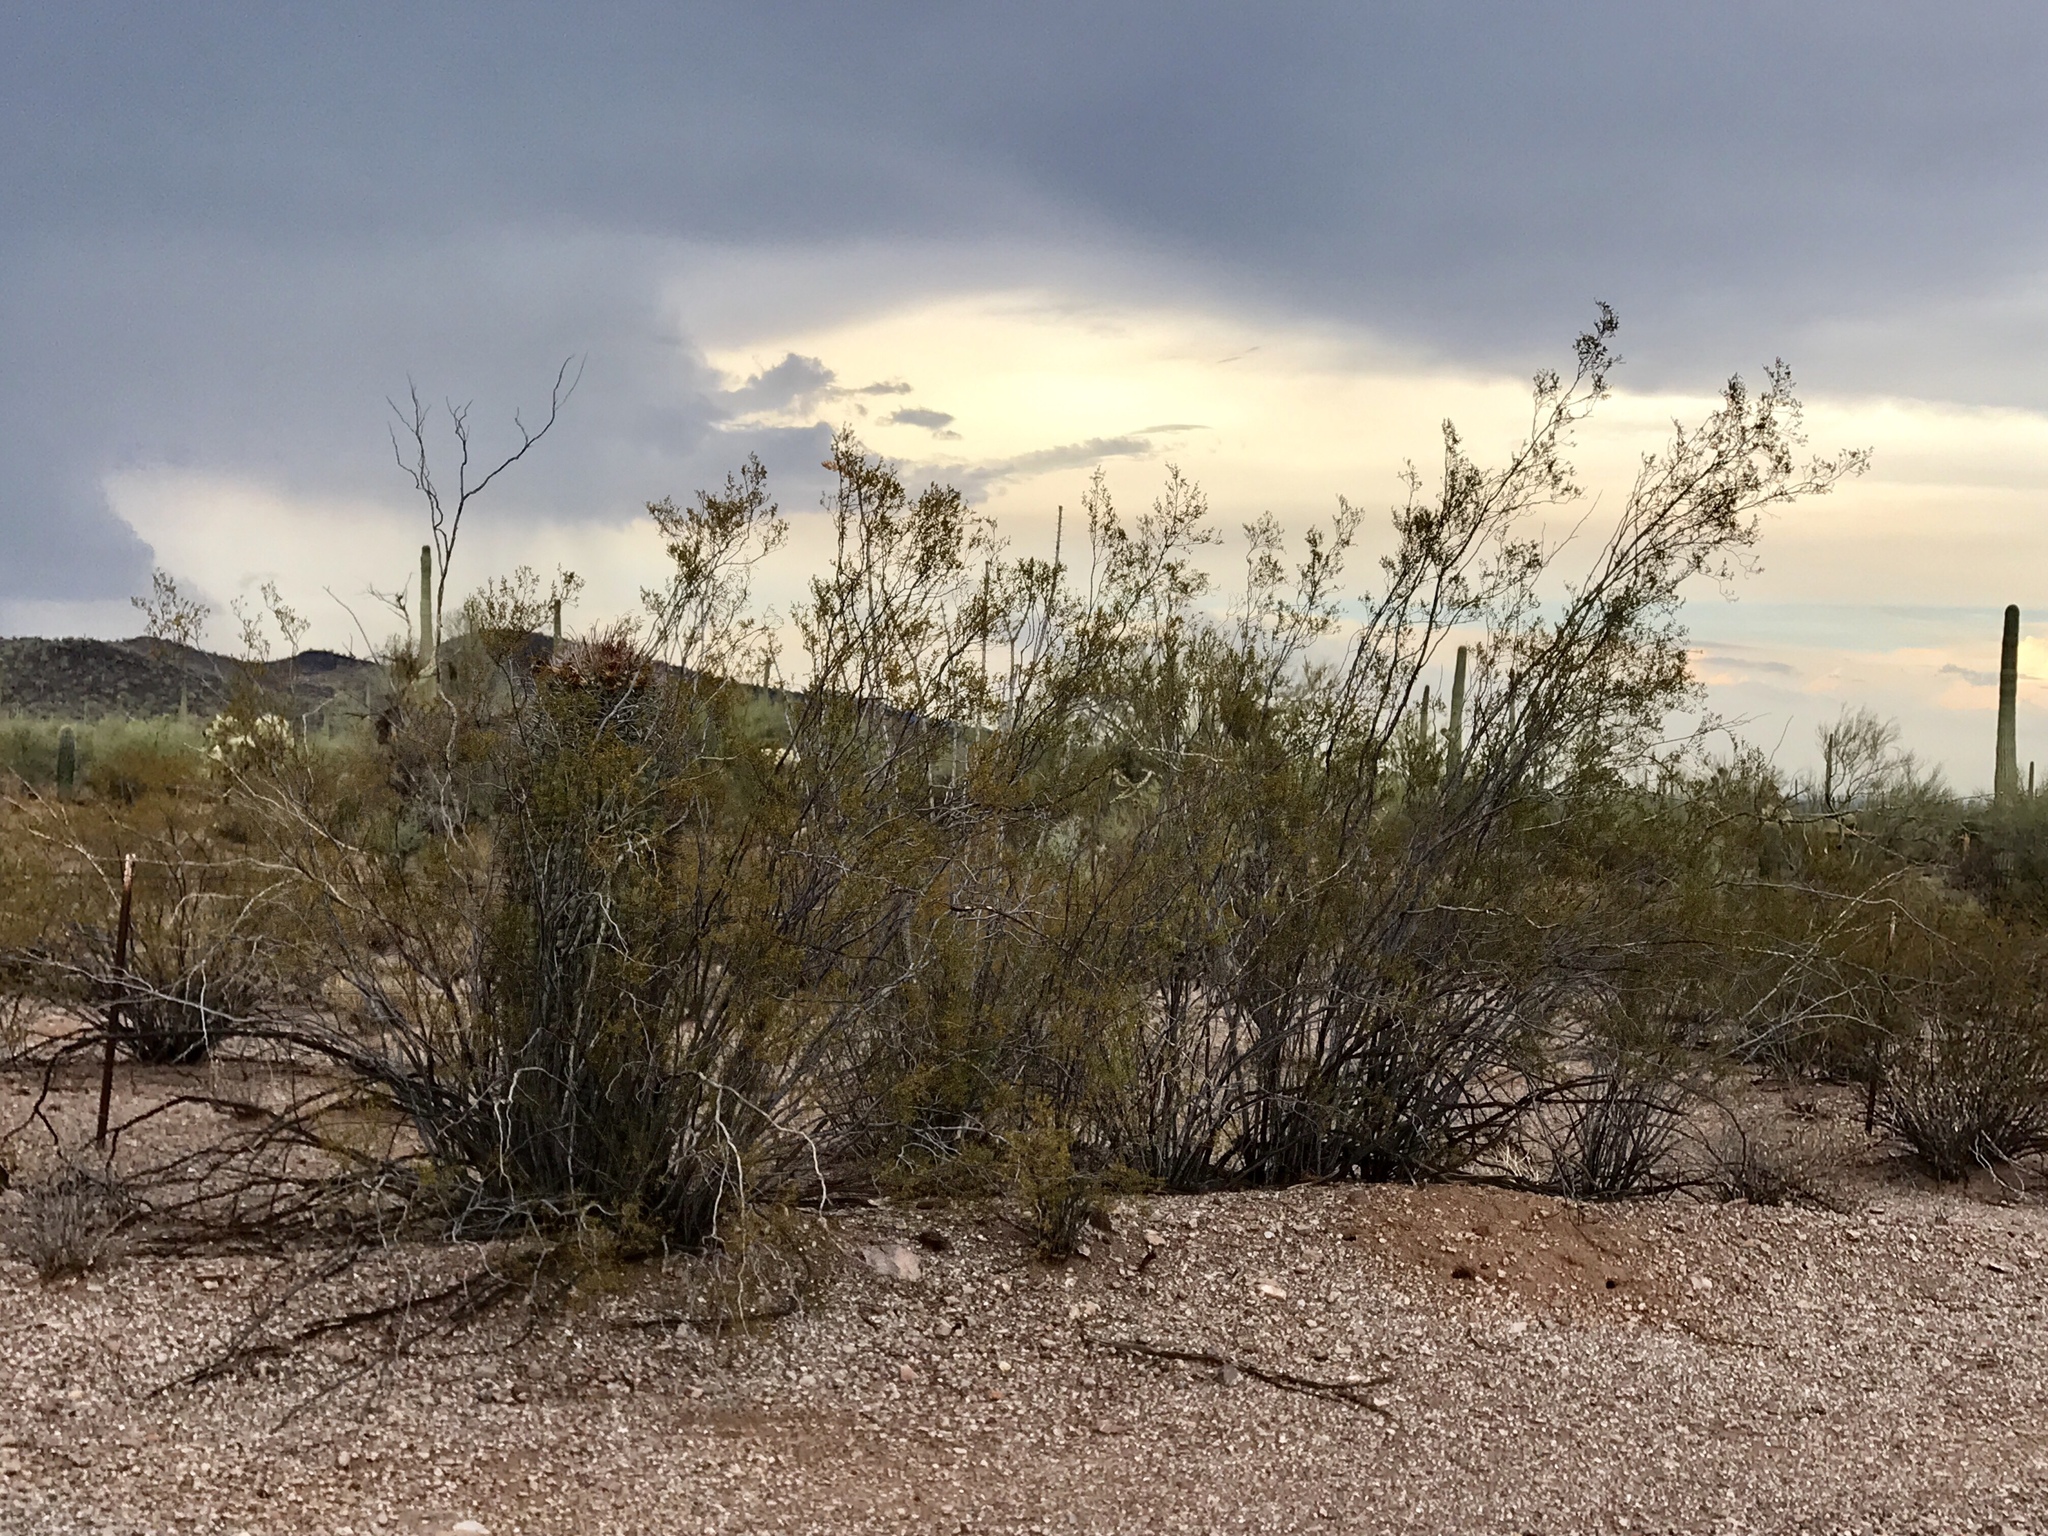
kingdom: Plantae
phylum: Tracheophyta
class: Magnoliopsida
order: Zygophyllales
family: Zygophyllaceae
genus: Larrea
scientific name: Larrea tridentata
